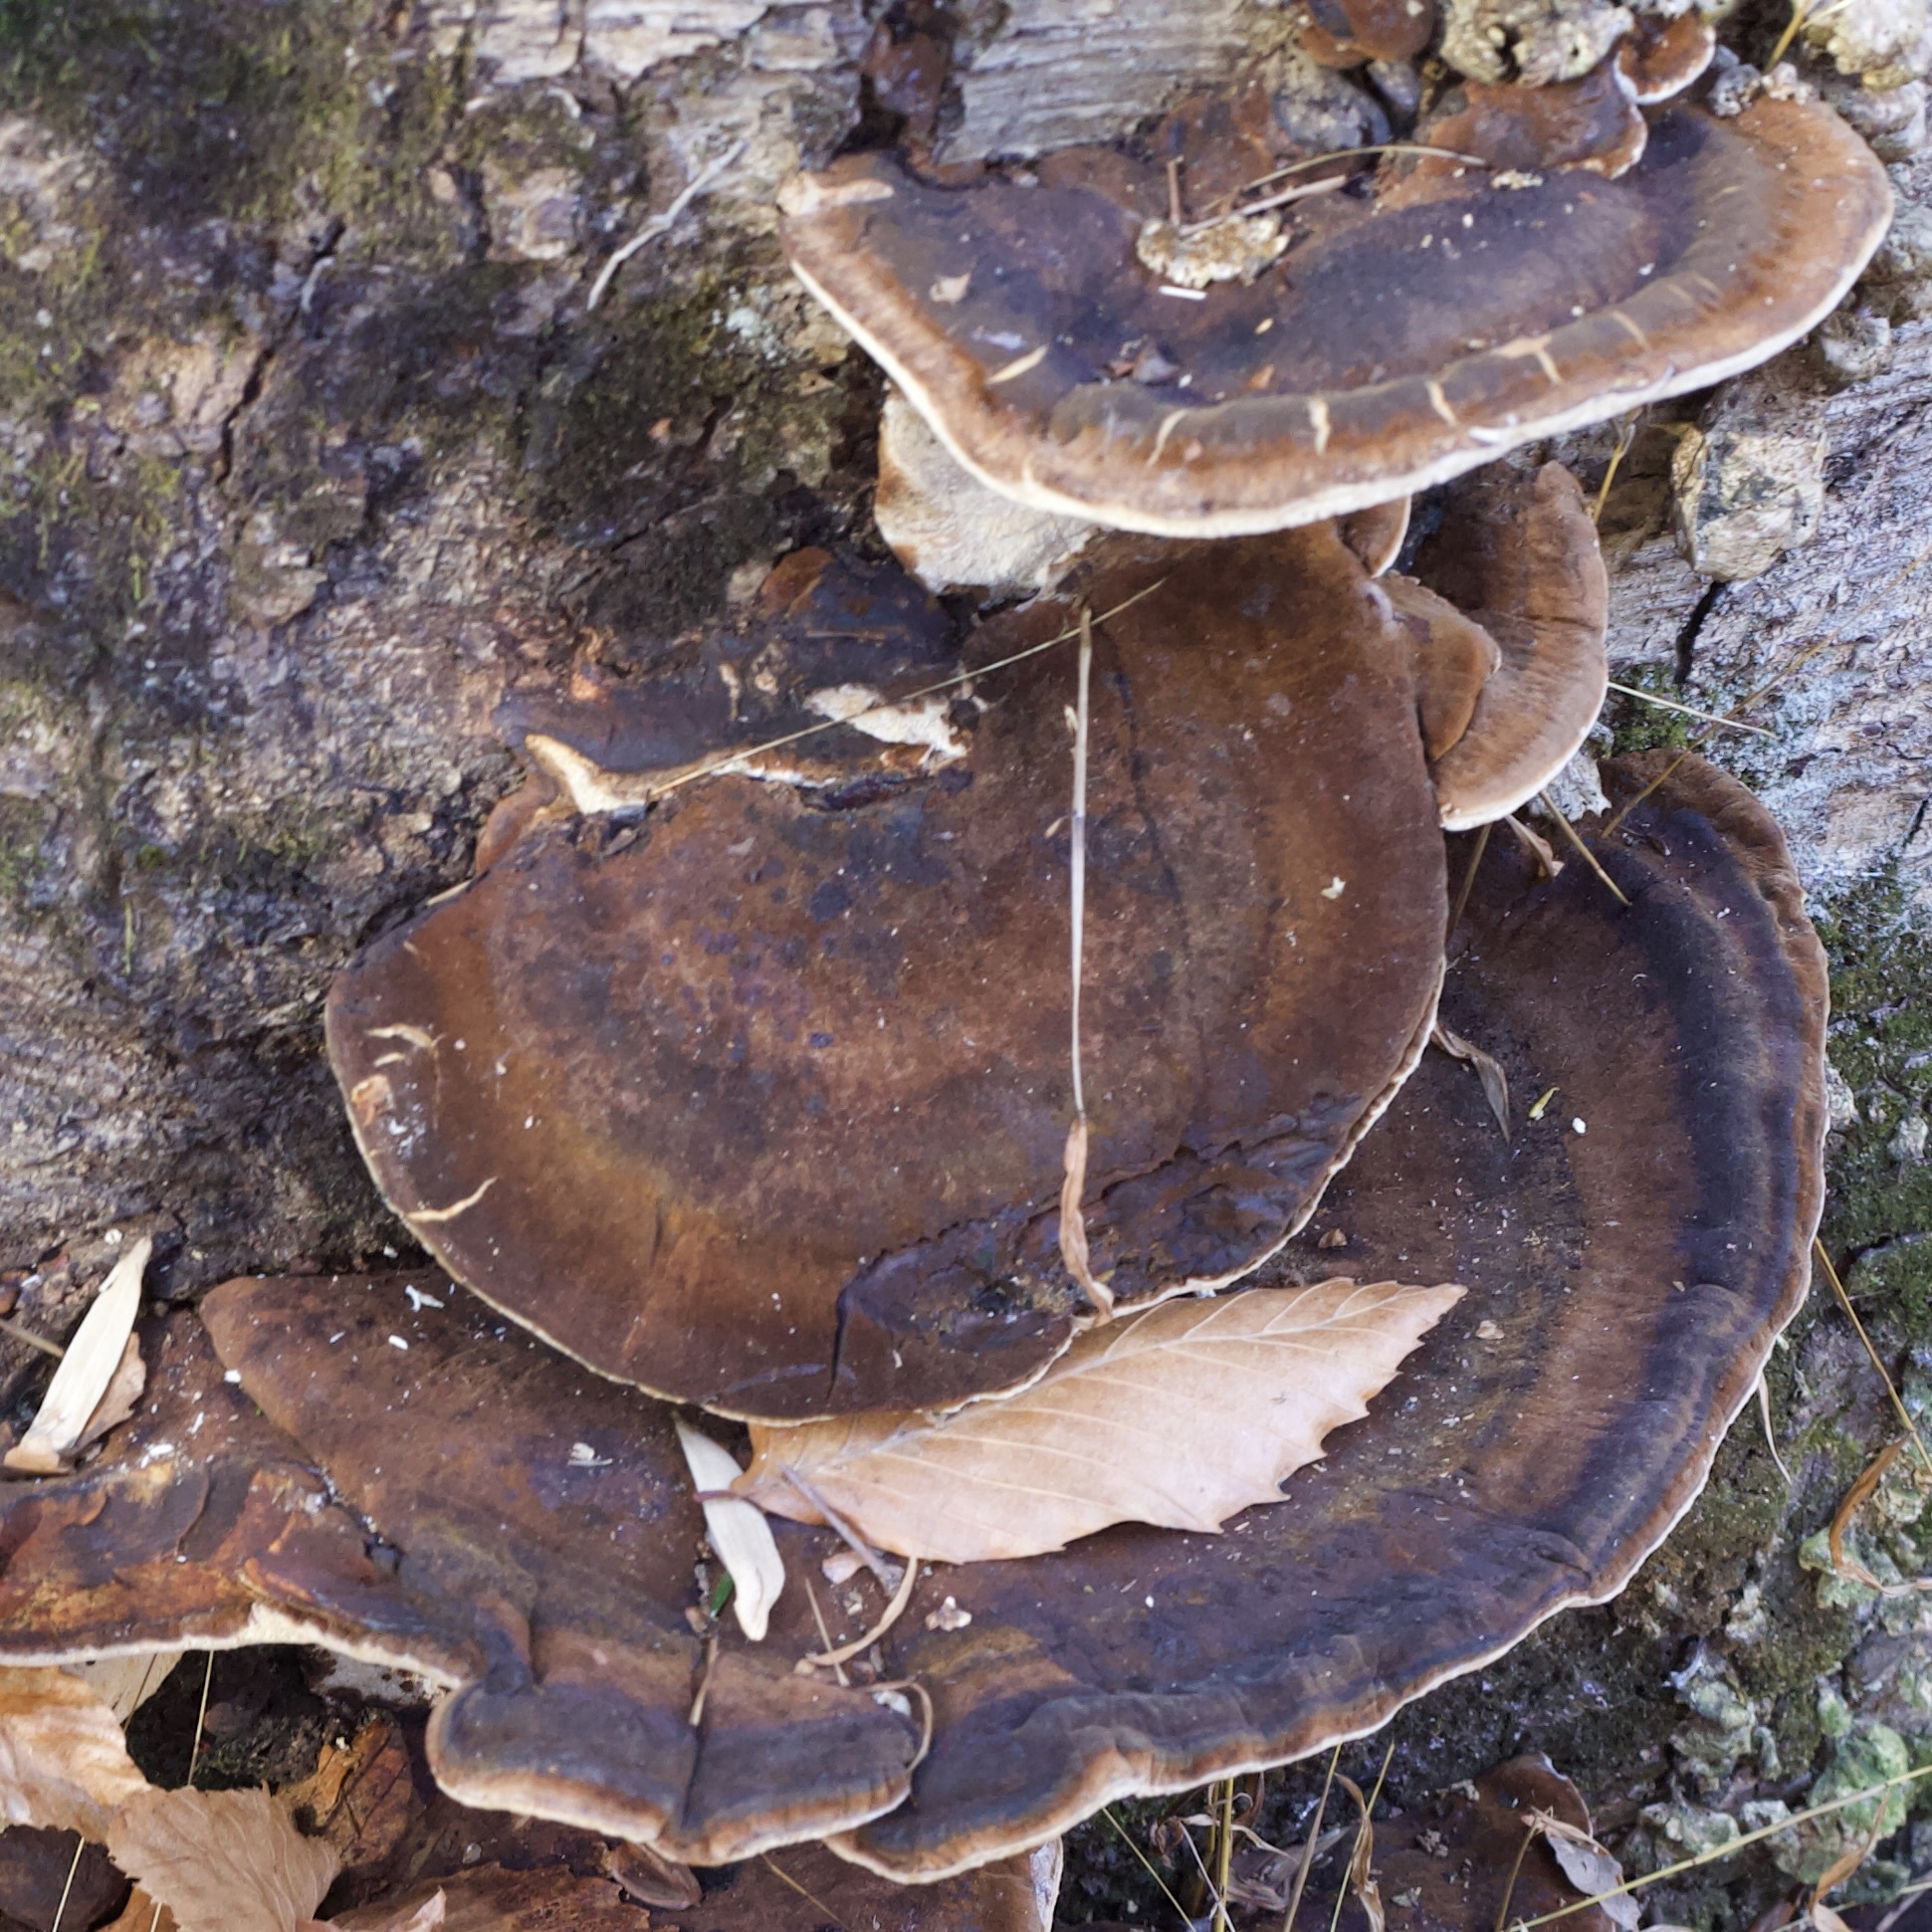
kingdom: Fungi
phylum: Basidiomycota
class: Agaricomycetes
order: Polyporales
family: Ischnodermataceae
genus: Ischnoderma
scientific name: Ischnoderma resinosum
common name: Resinous polypore
